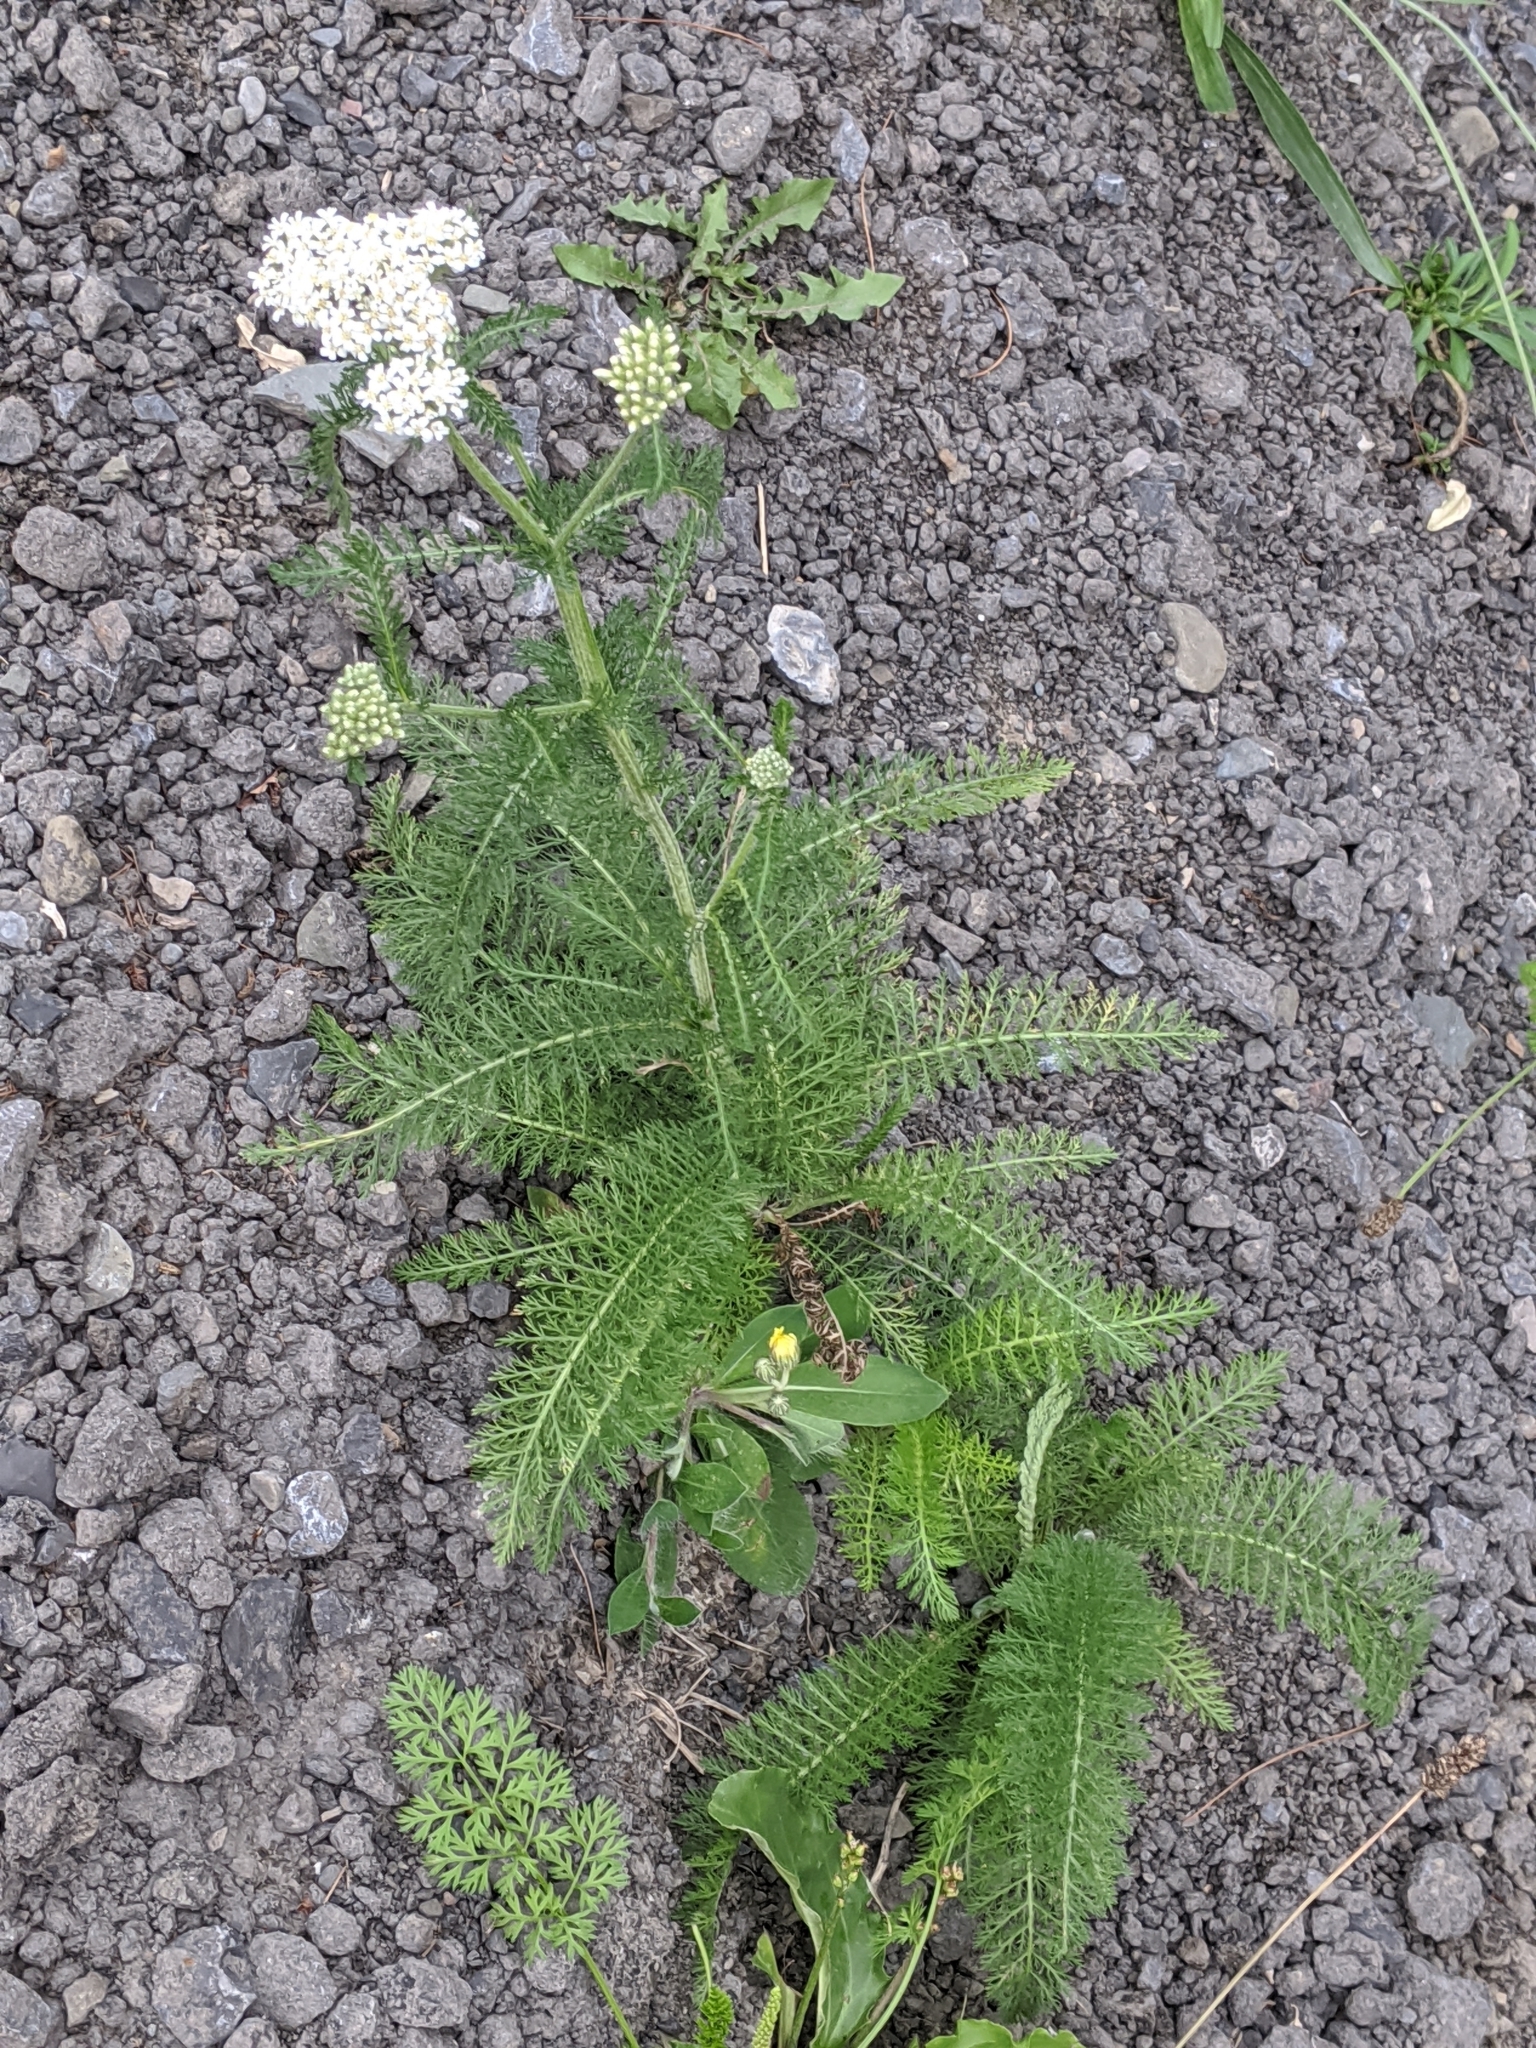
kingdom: Plantae
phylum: Tracheophyta
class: Magnoliopsida
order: Asterales
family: Asteraceae
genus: Achillea
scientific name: Achillea millefolium
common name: Yarrow
